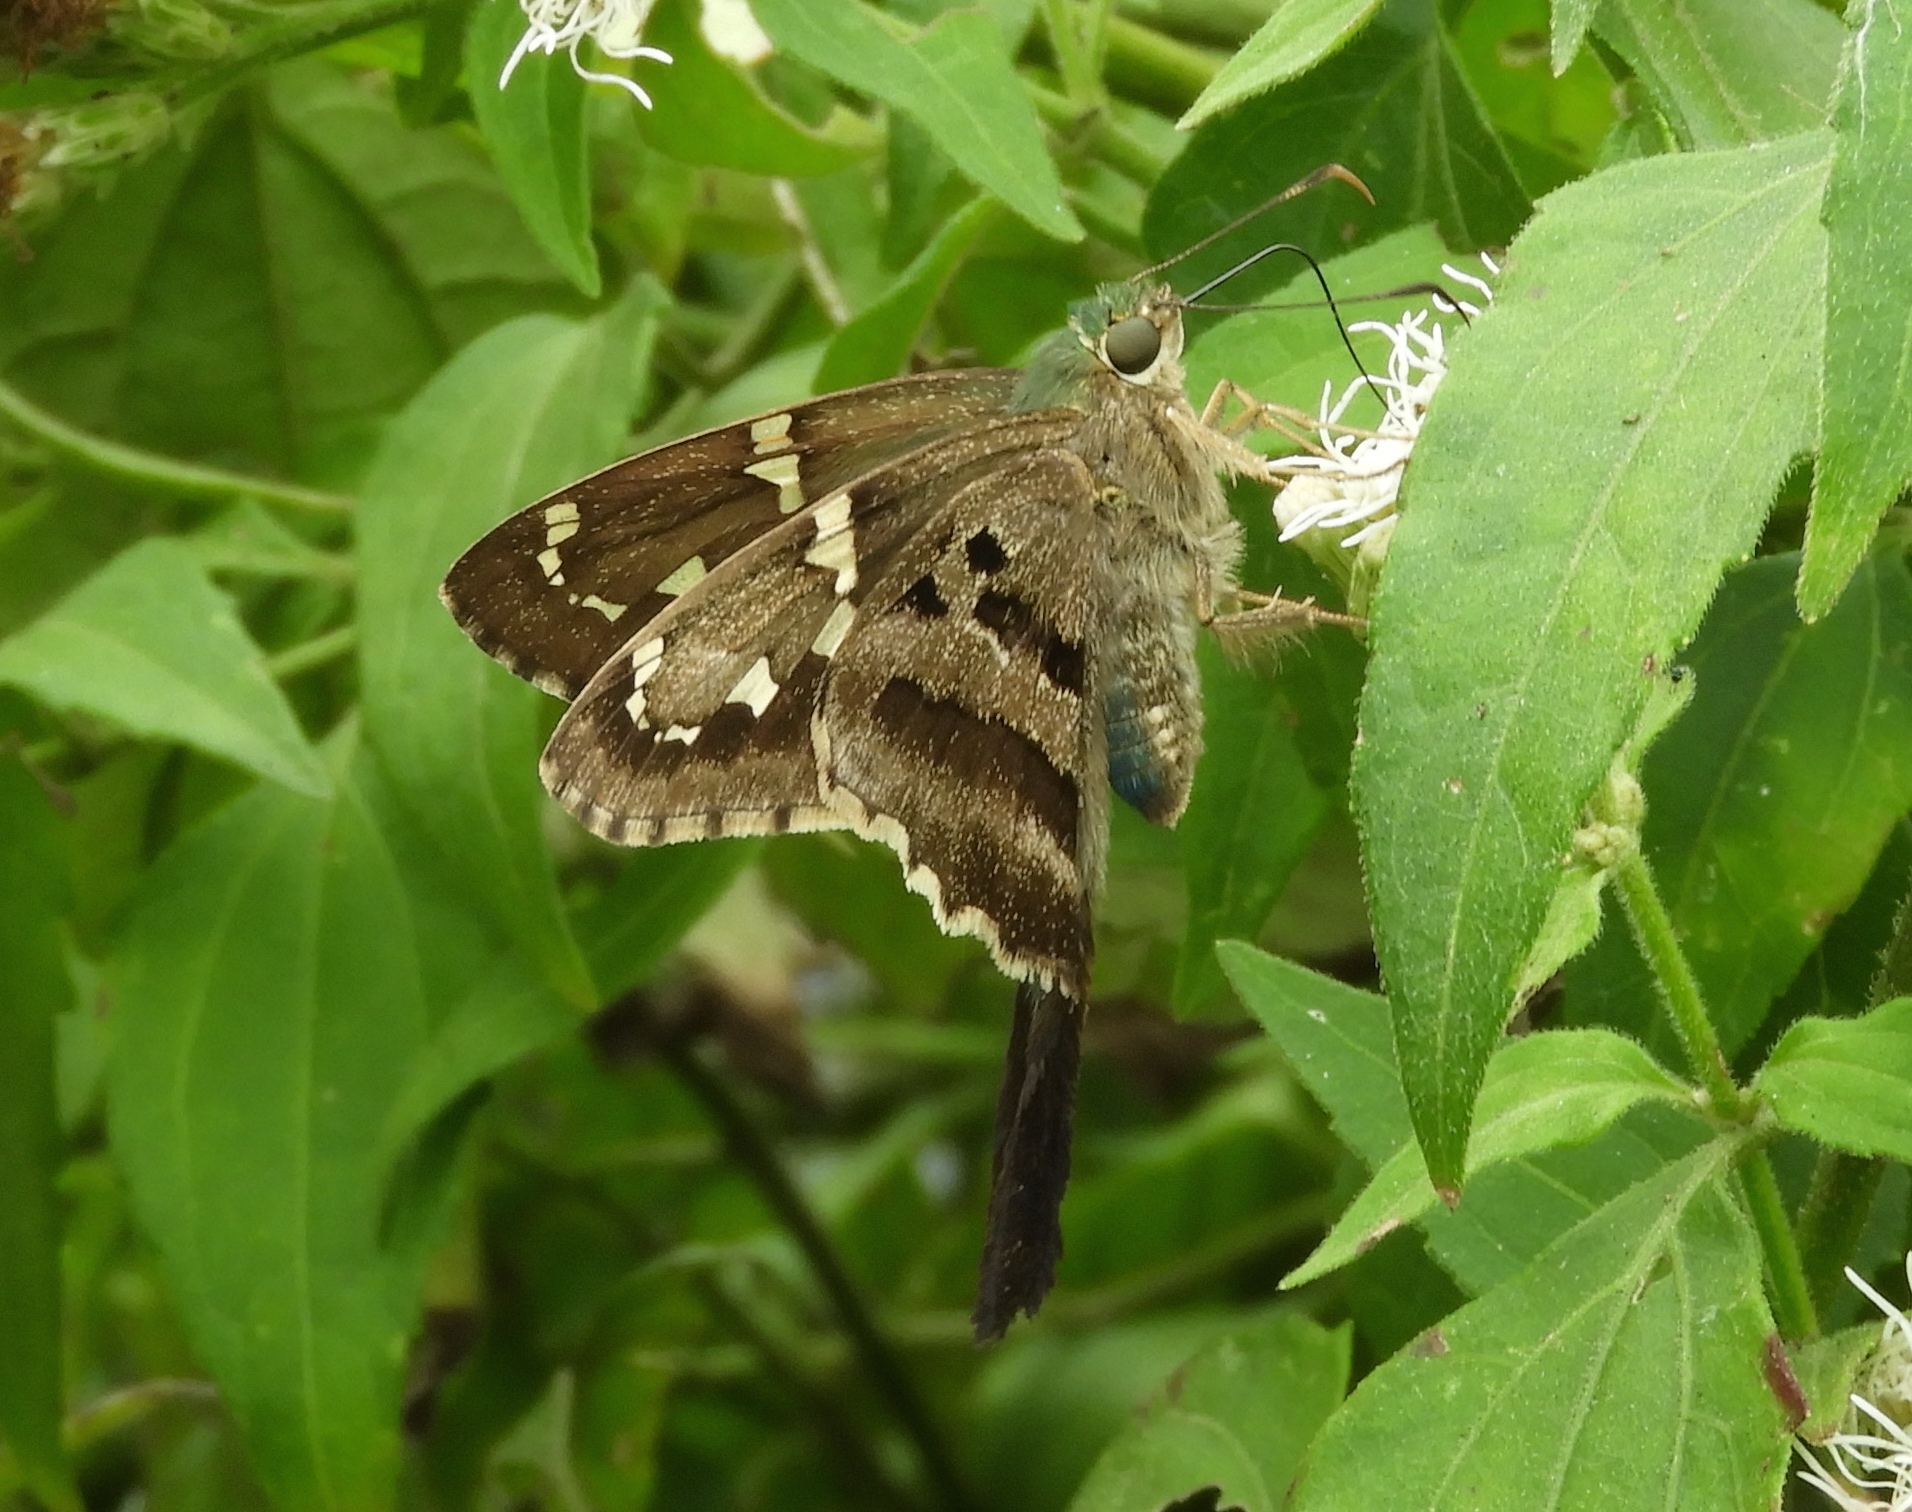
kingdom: Animalia
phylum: Arthropoda
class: Insecta
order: Lepidoptera
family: Hesperiidae
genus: Urbanus
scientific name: Urbanus proteus
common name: Long-tailed skipper
